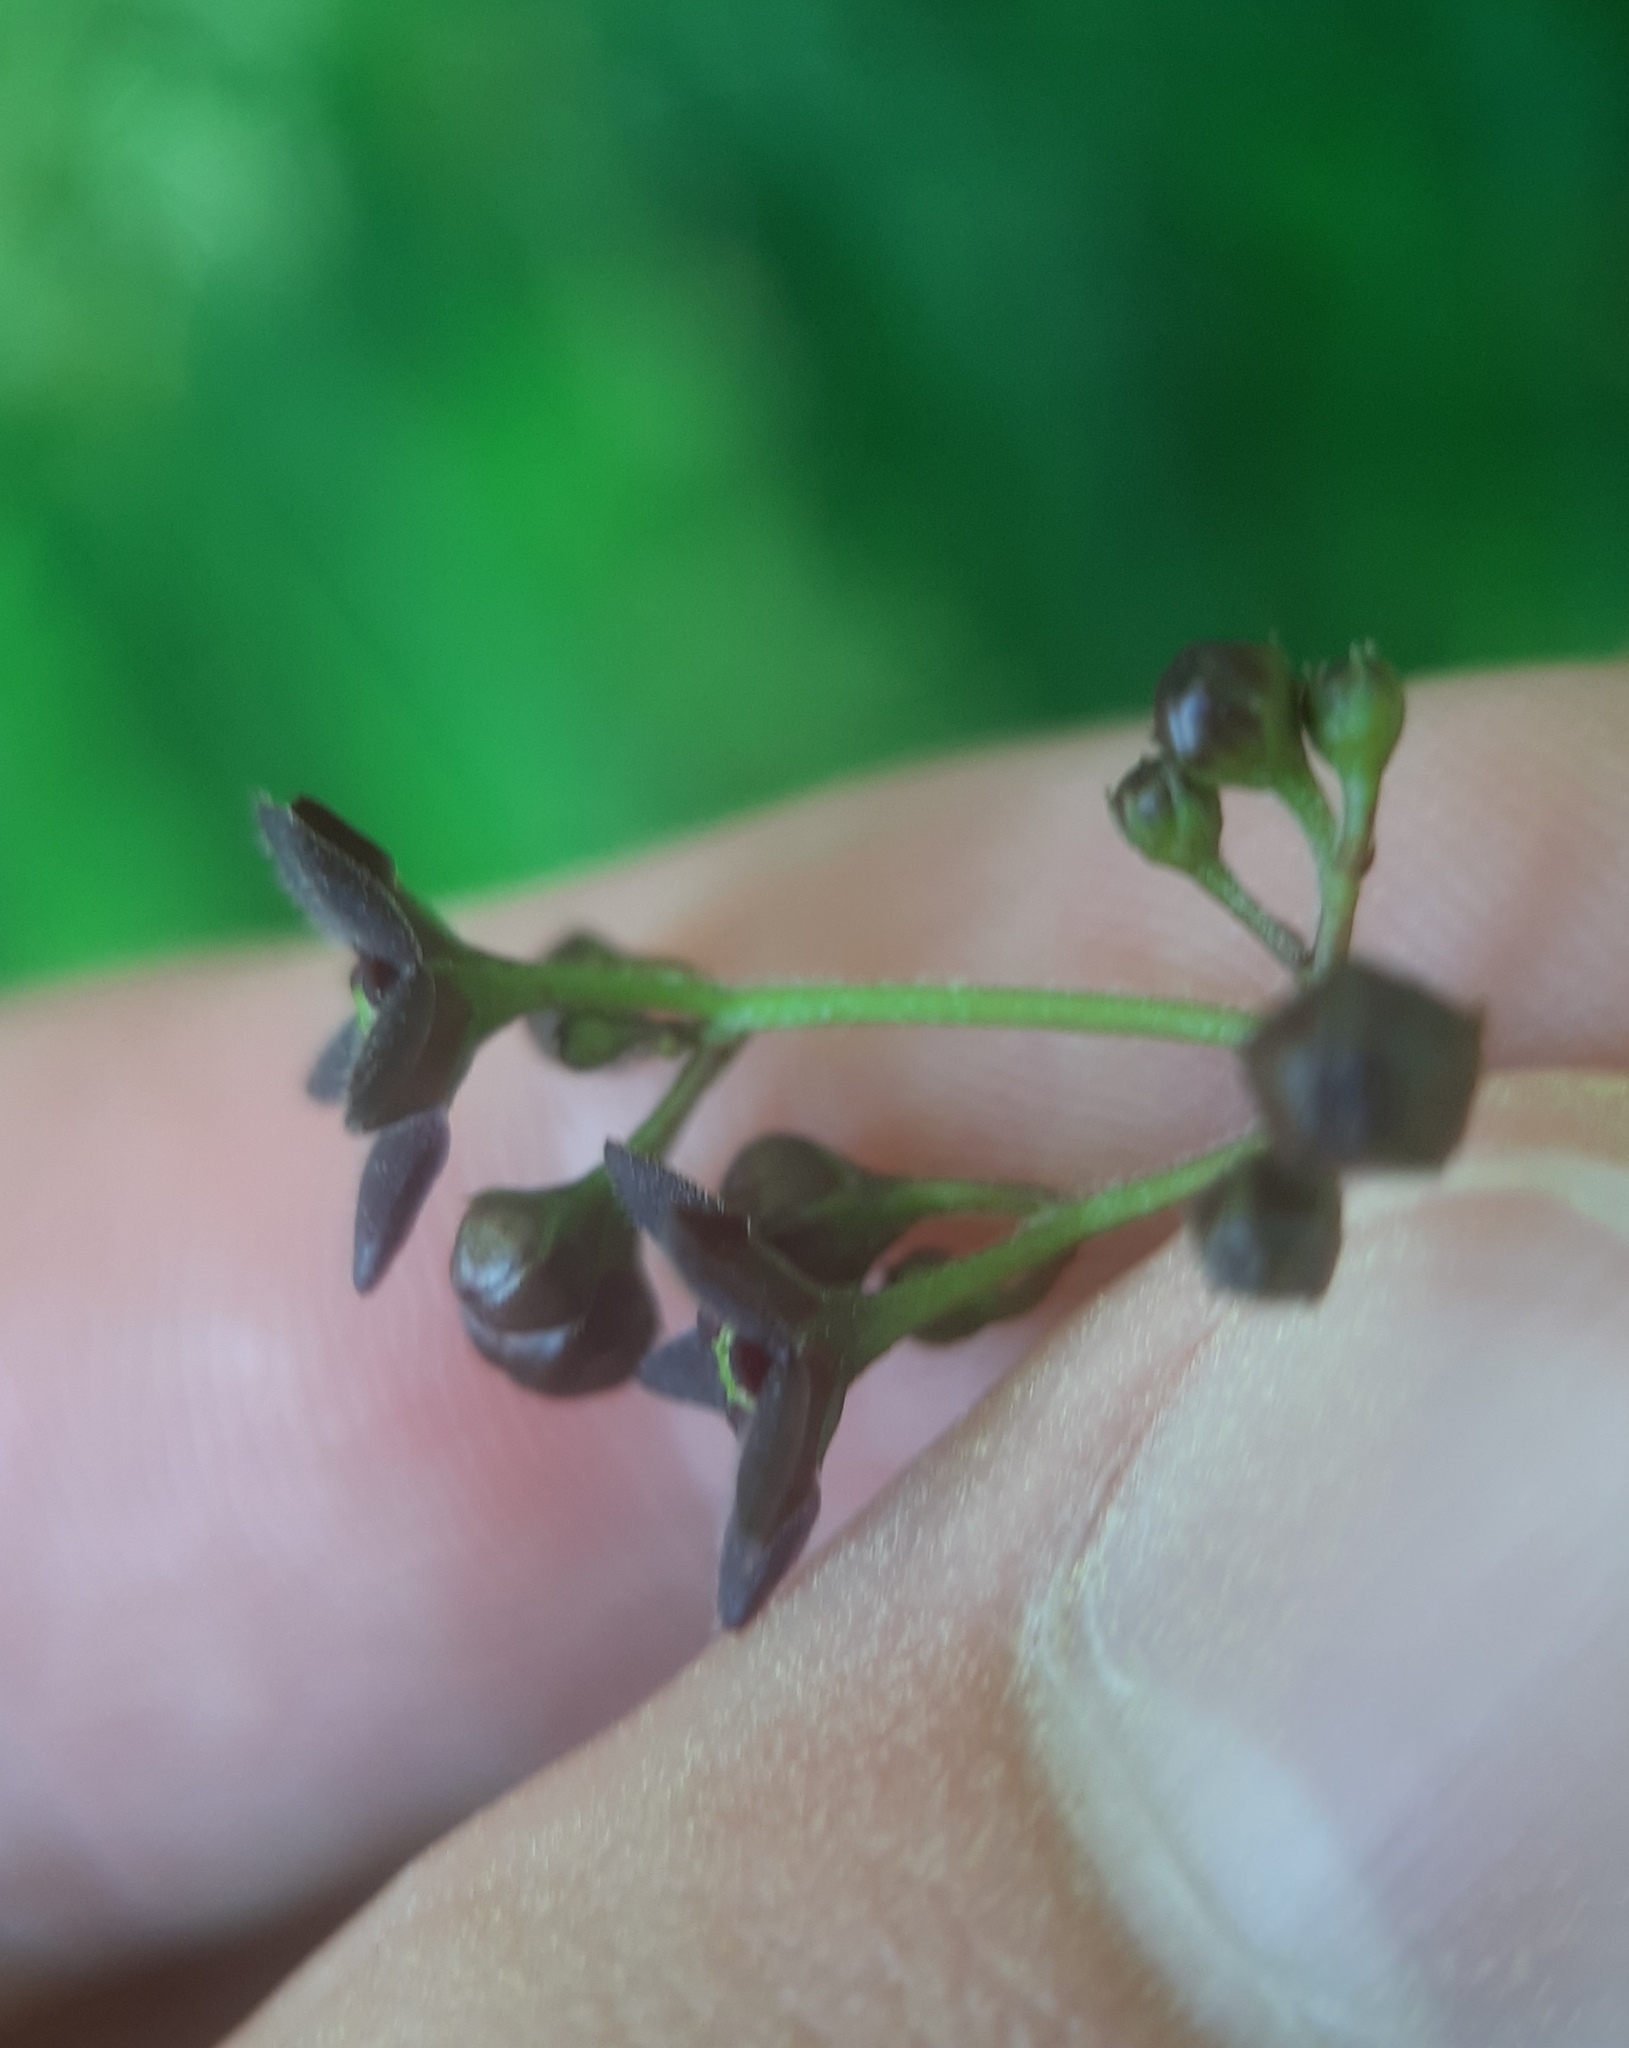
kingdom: Plantae
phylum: Tracheophyta
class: Magnoliopsida
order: Gentianales
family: Apocynaceae
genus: Vincetoxicum
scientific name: Vincetoxicum nigrum
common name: Black swallow-wort
